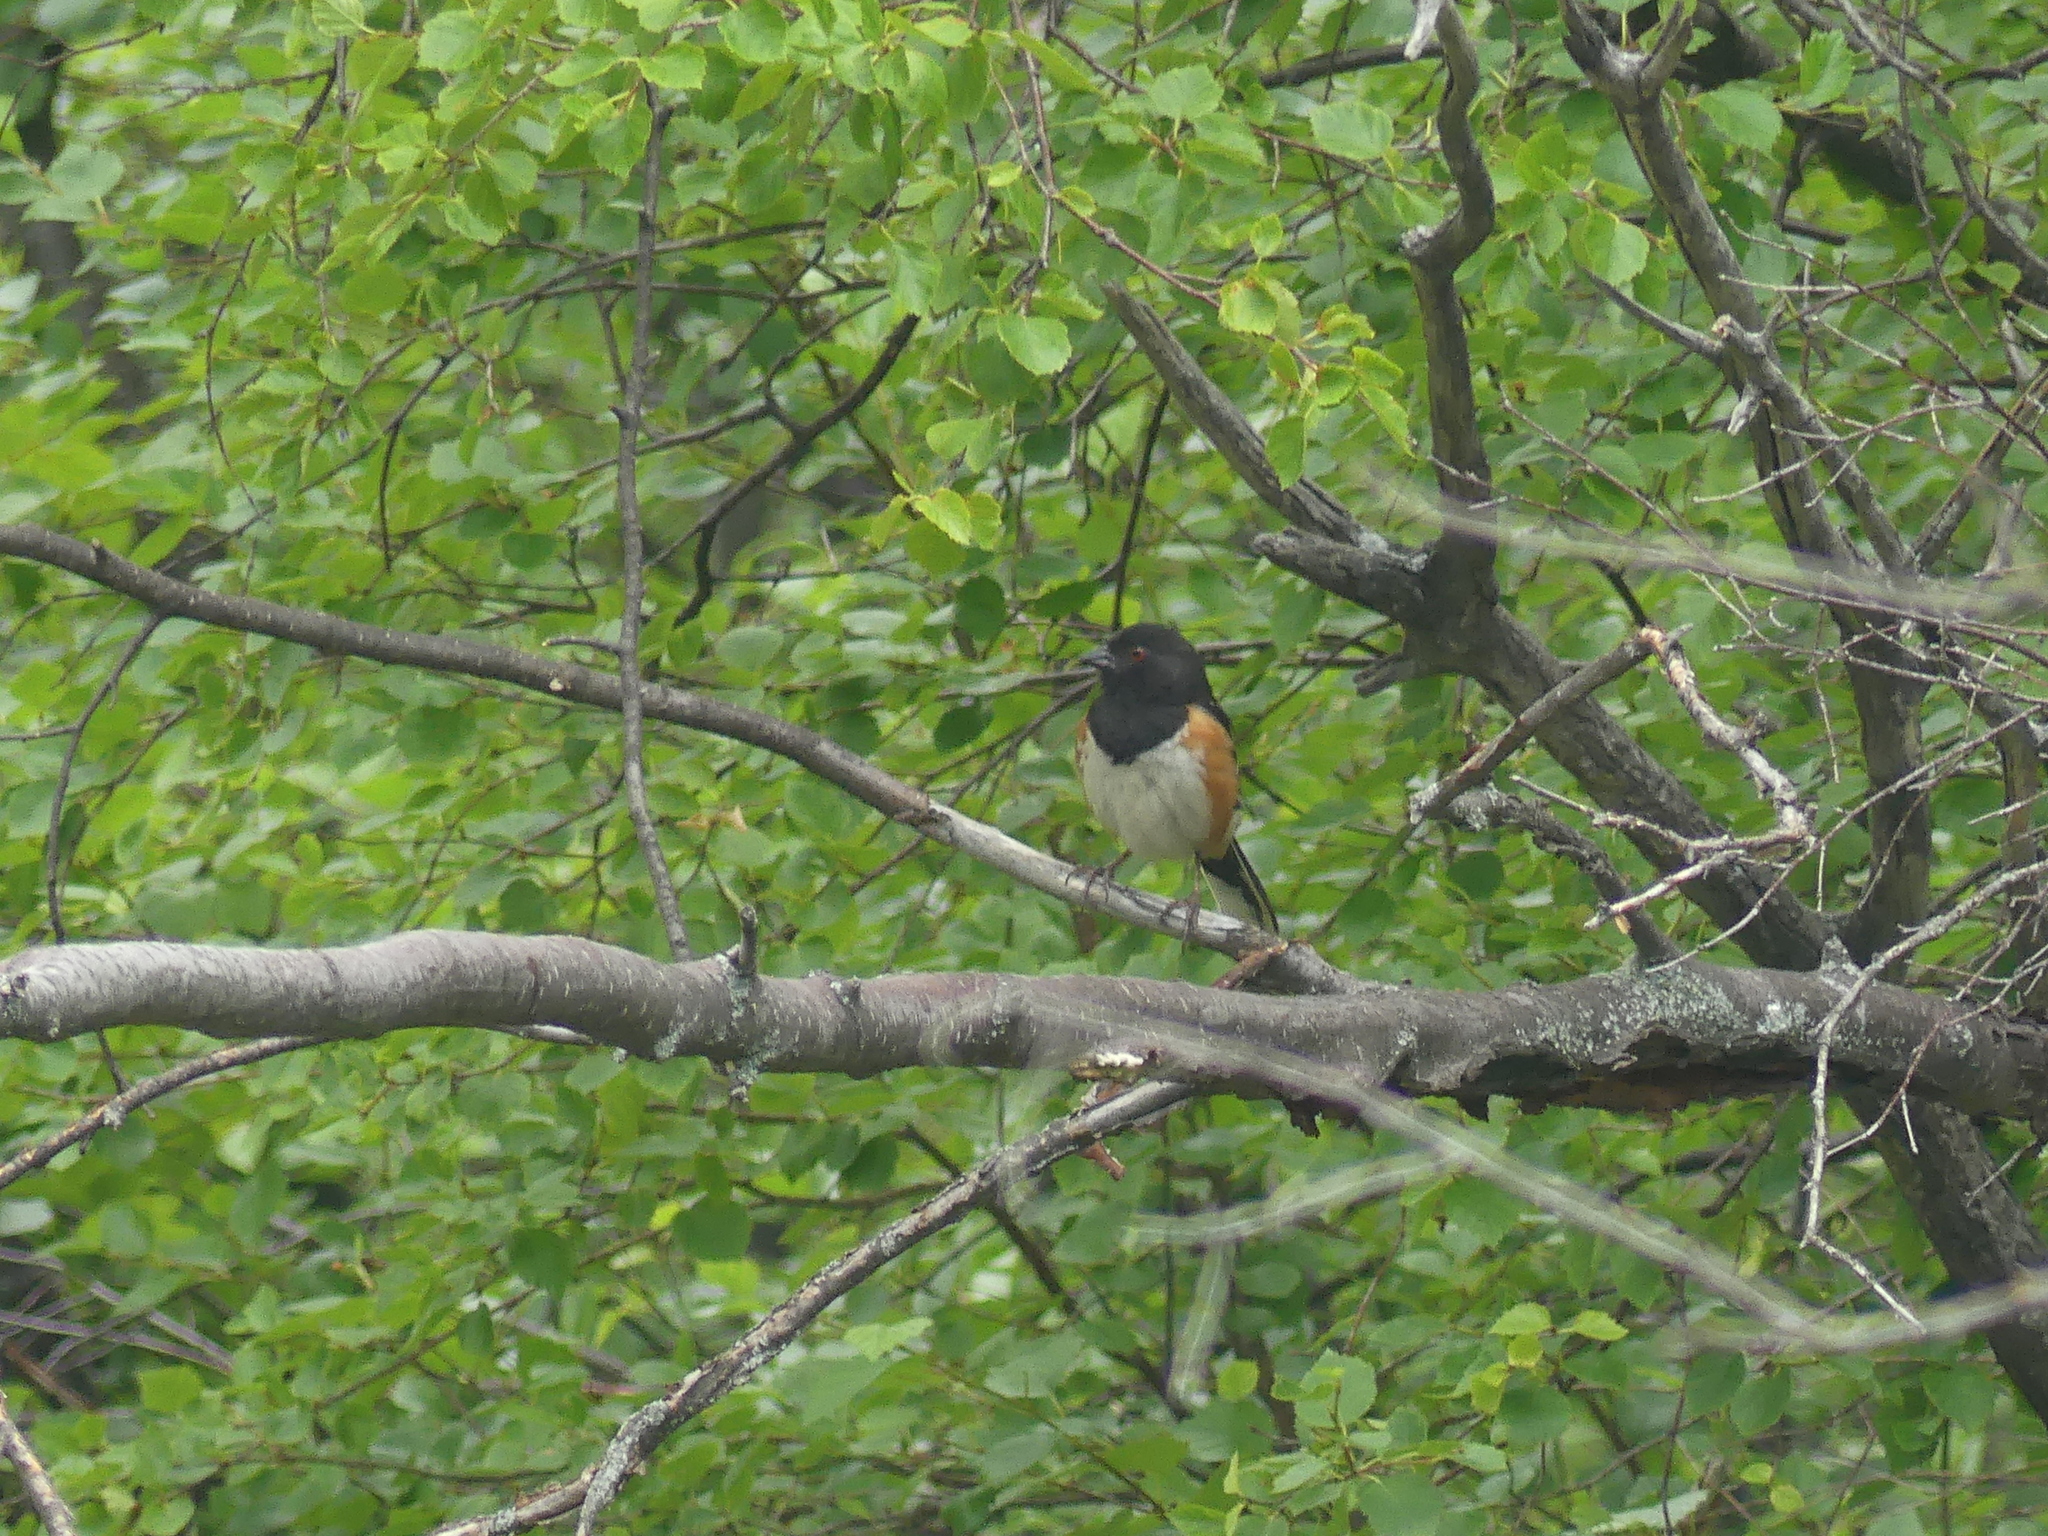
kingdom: Animalia
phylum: Chordata
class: Aves
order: Passeriformes
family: Passerellidae
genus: Pipilo
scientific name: Pipilo maculatus
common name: Spotted towhee
